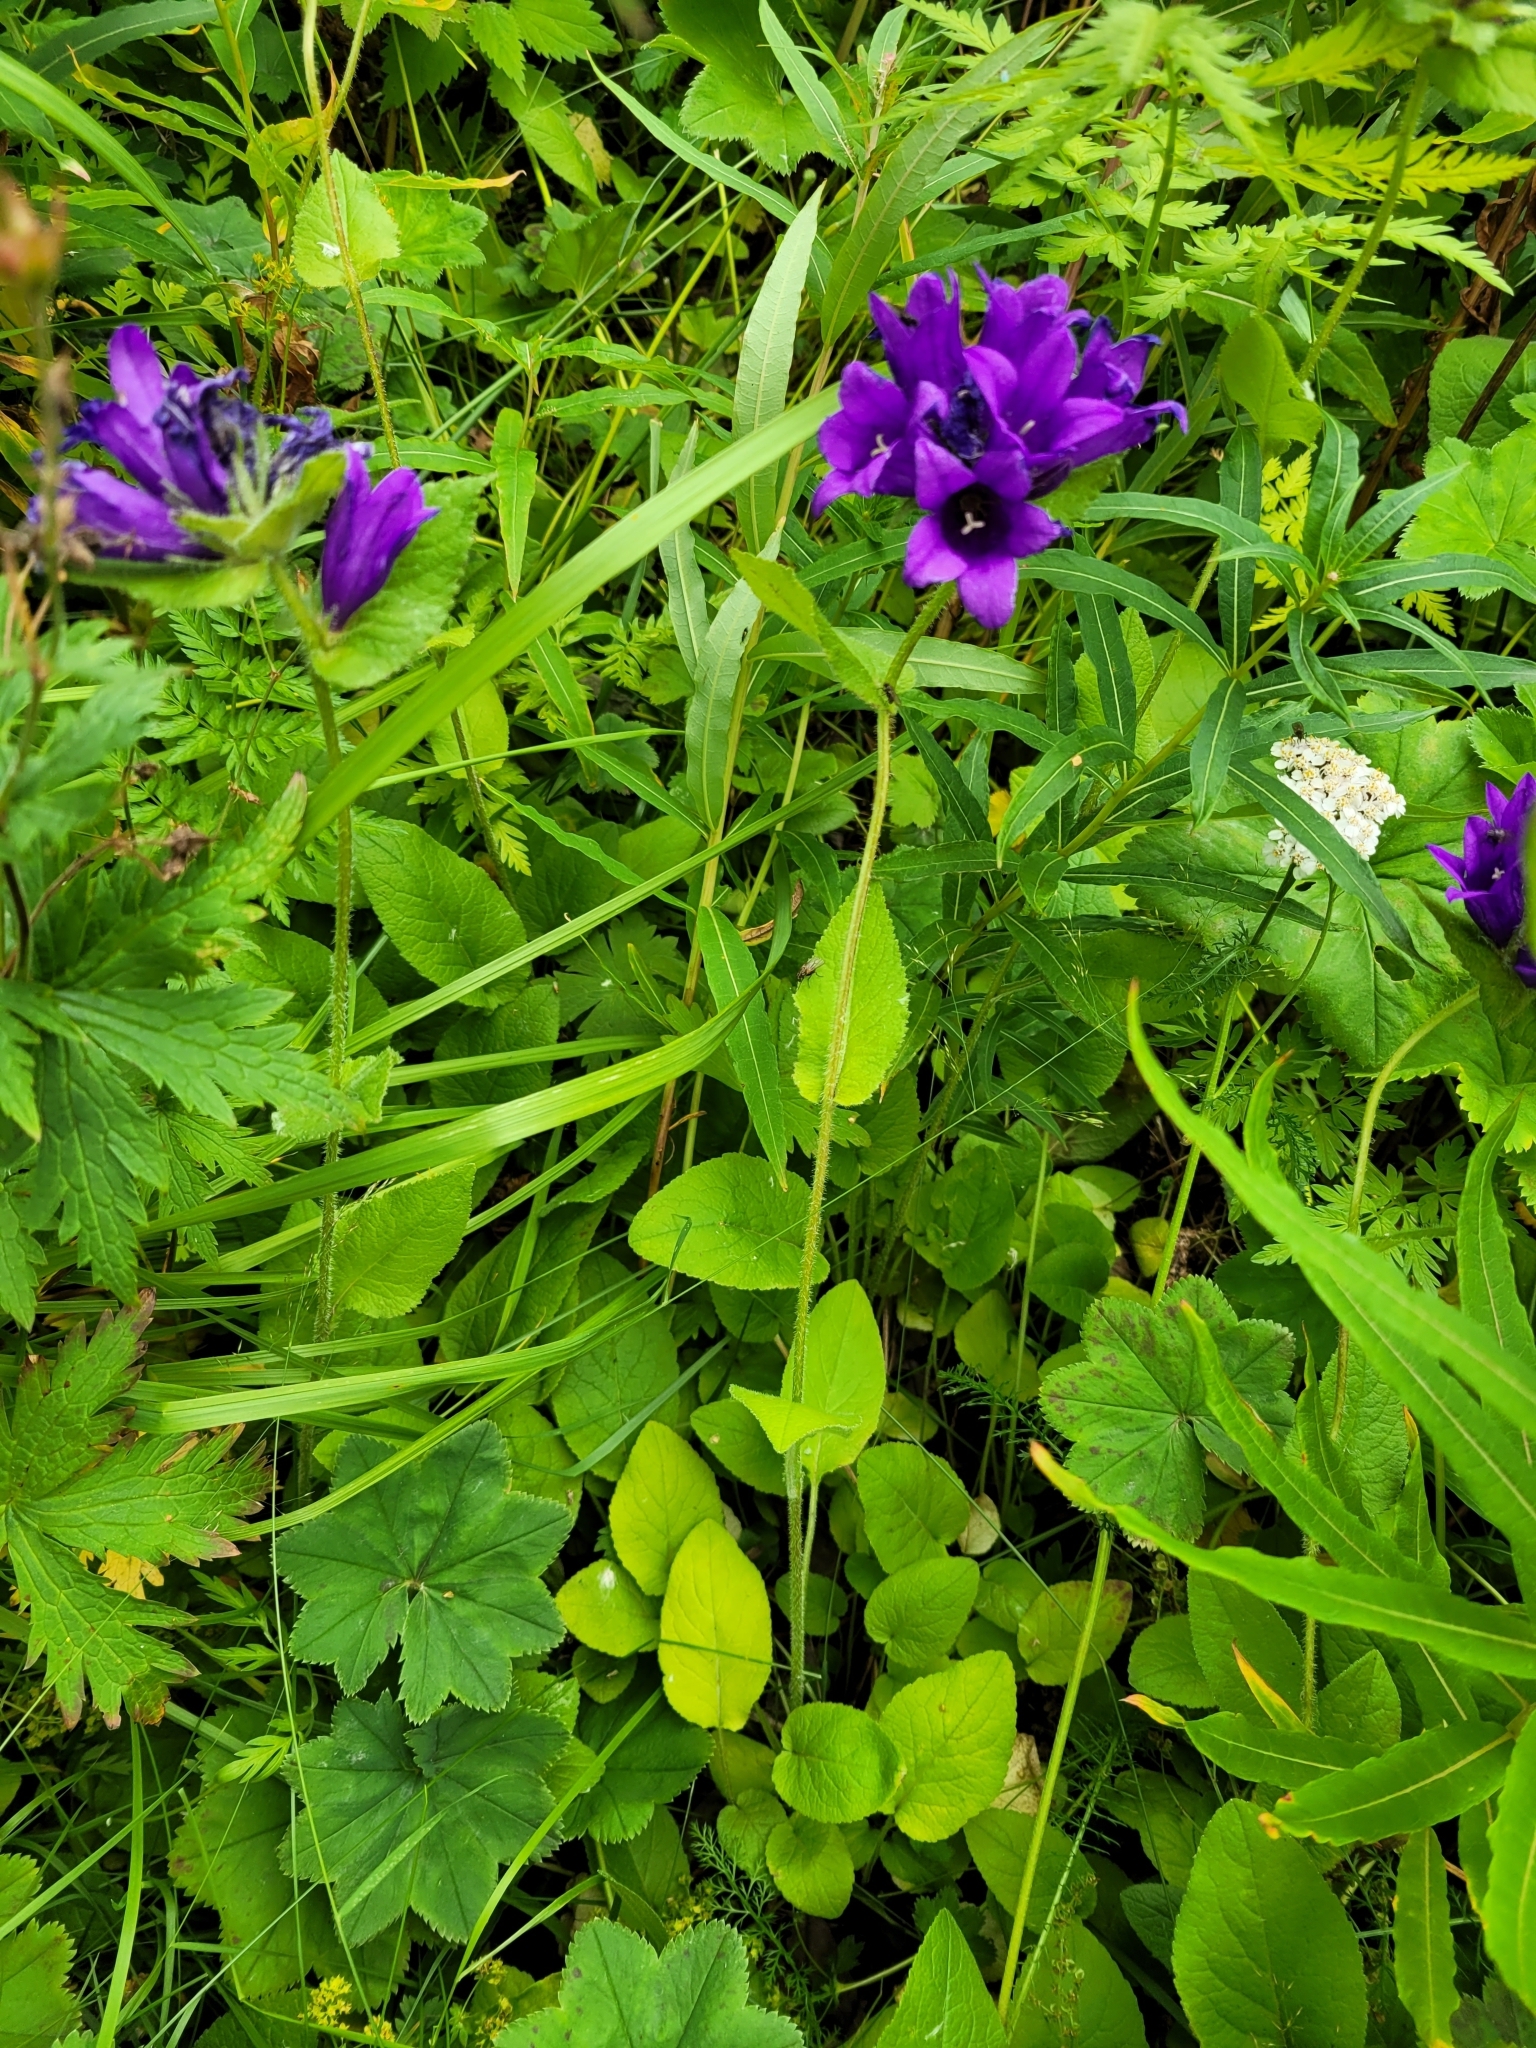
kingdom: Plantae
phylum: Tracheophyta
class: Magnoliopsida
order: Asterales
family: Campanulaceae
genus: Campanula
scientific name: Campanula glomerata
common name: Clustered bellflower
